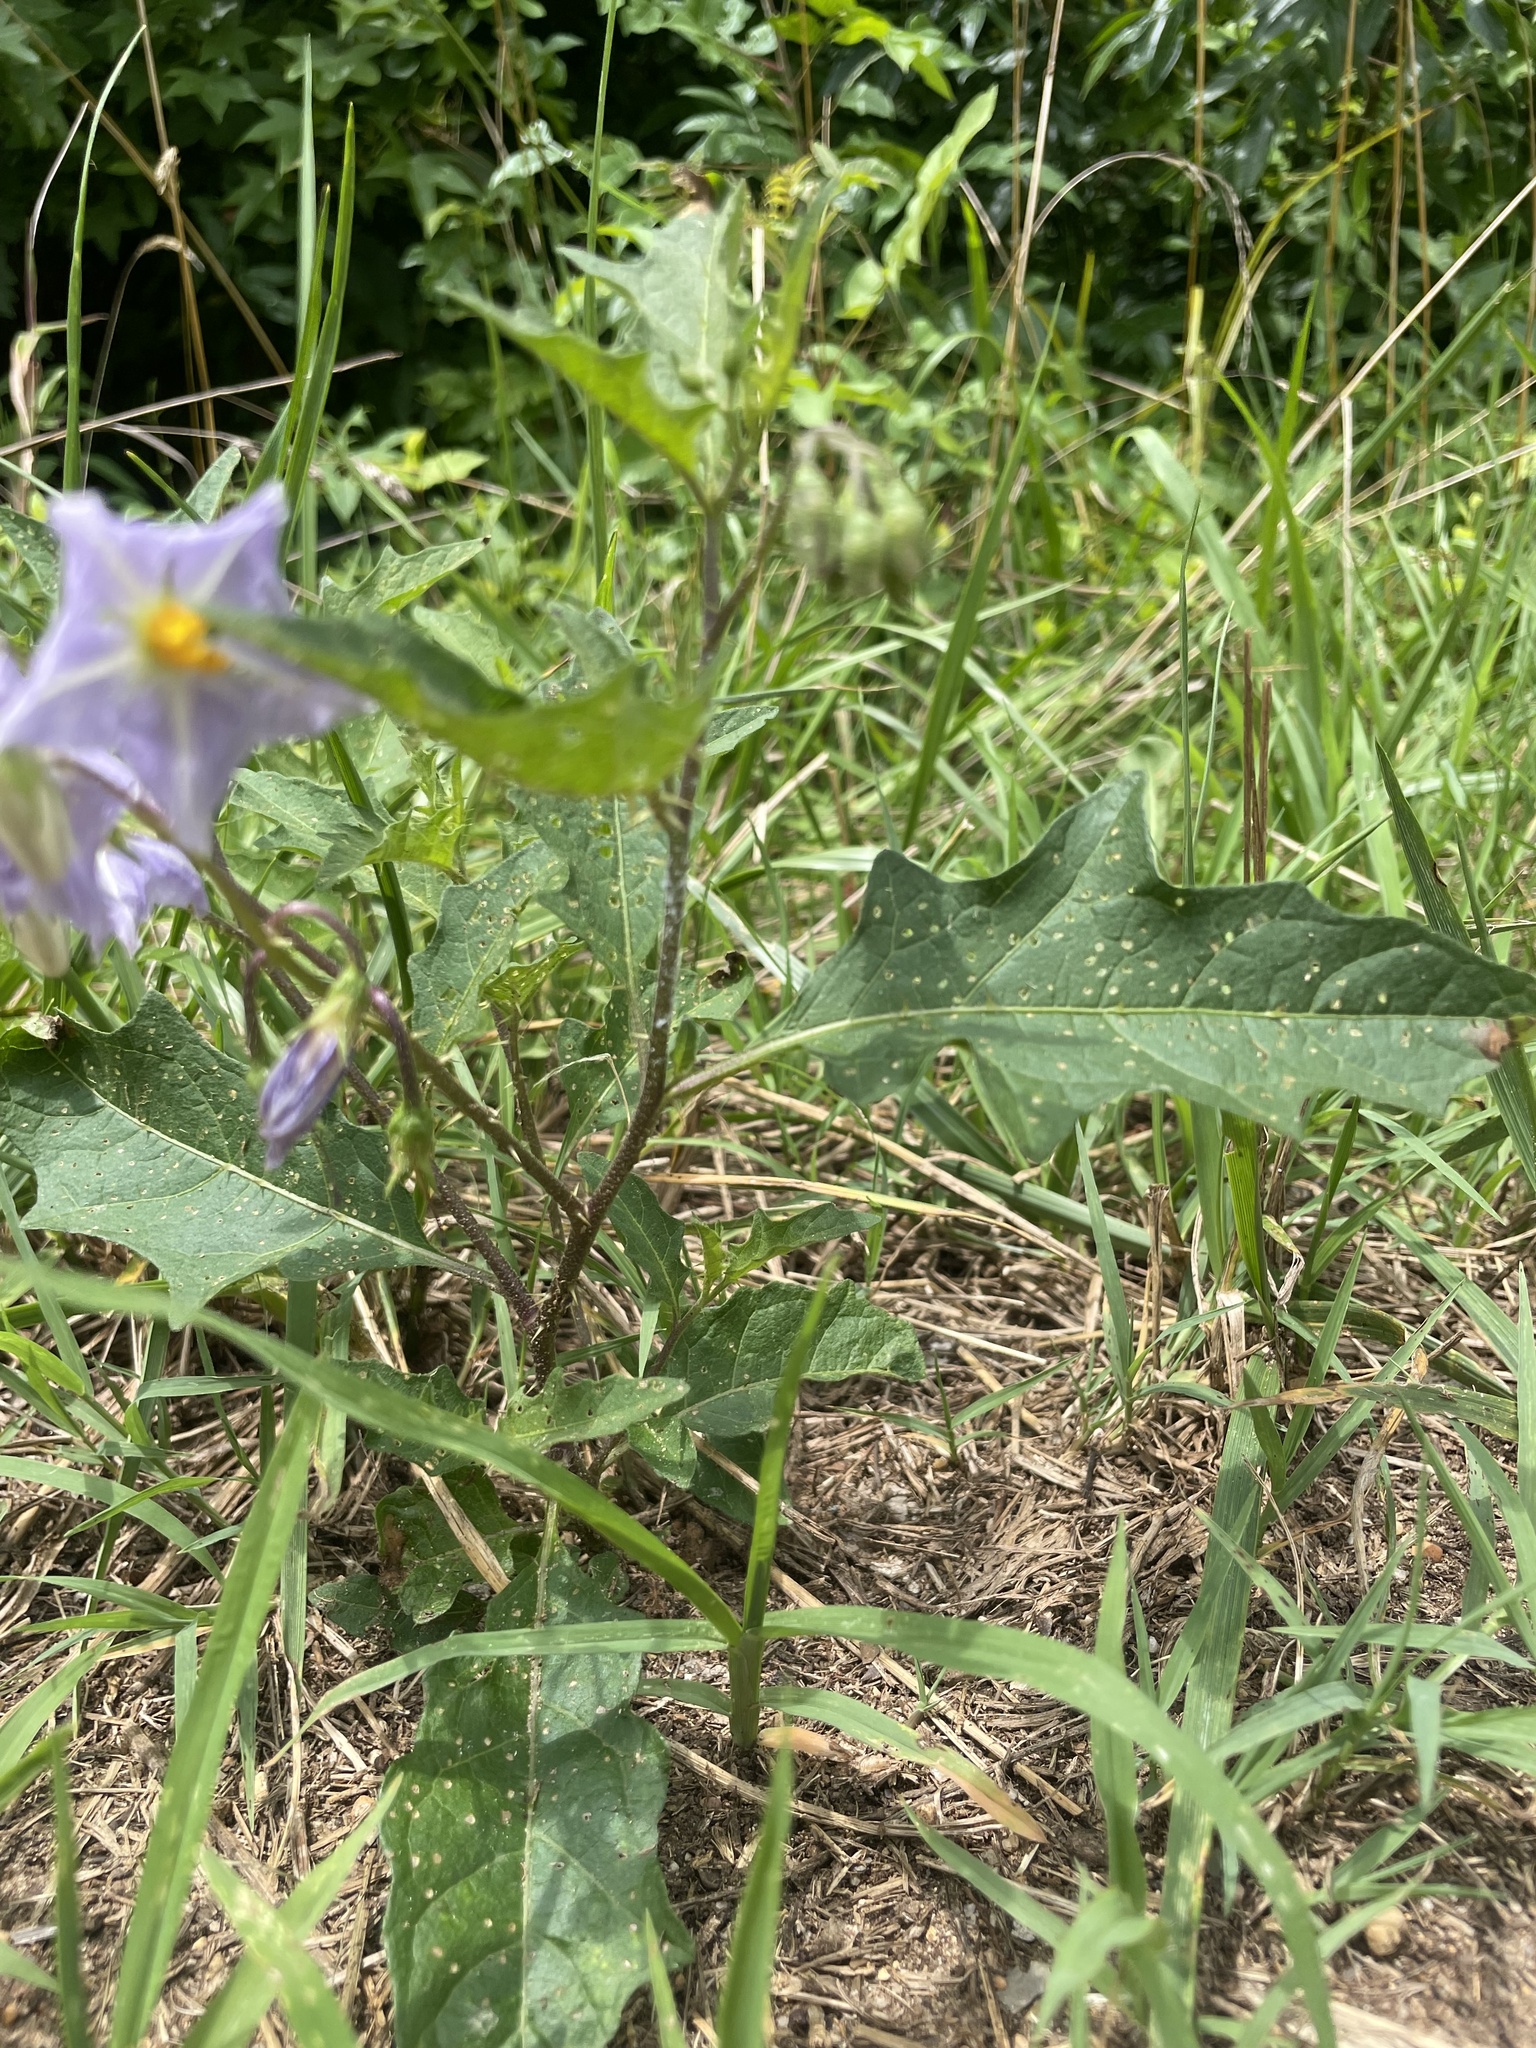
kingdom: Plantae
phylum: Tracheophyta
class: Magnoliopsida
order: Solanales
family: Solanaceae
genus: Solanum
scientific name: Solanum carolinense
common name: Horse-nettle
